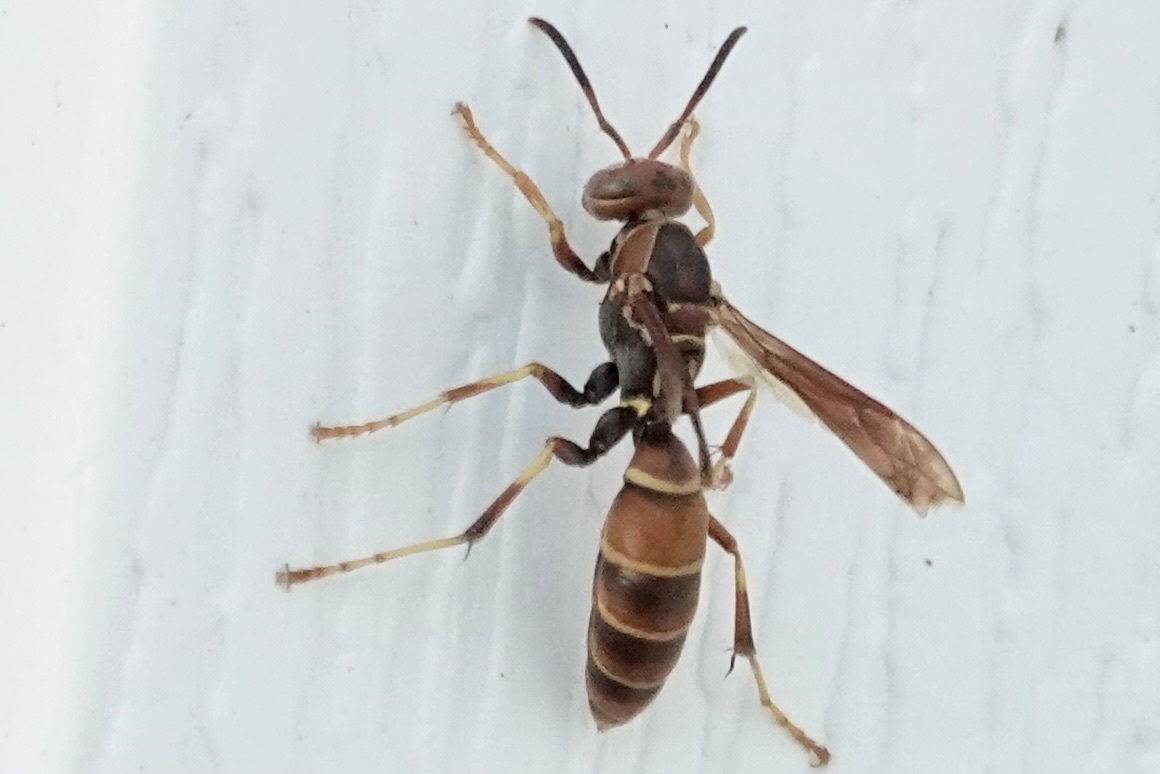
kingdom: Animalia
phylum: Arthropoda
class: Insecta
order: Hymenoptera
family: Eumenidae
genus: Polistes
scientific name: Polistes dorsalis
